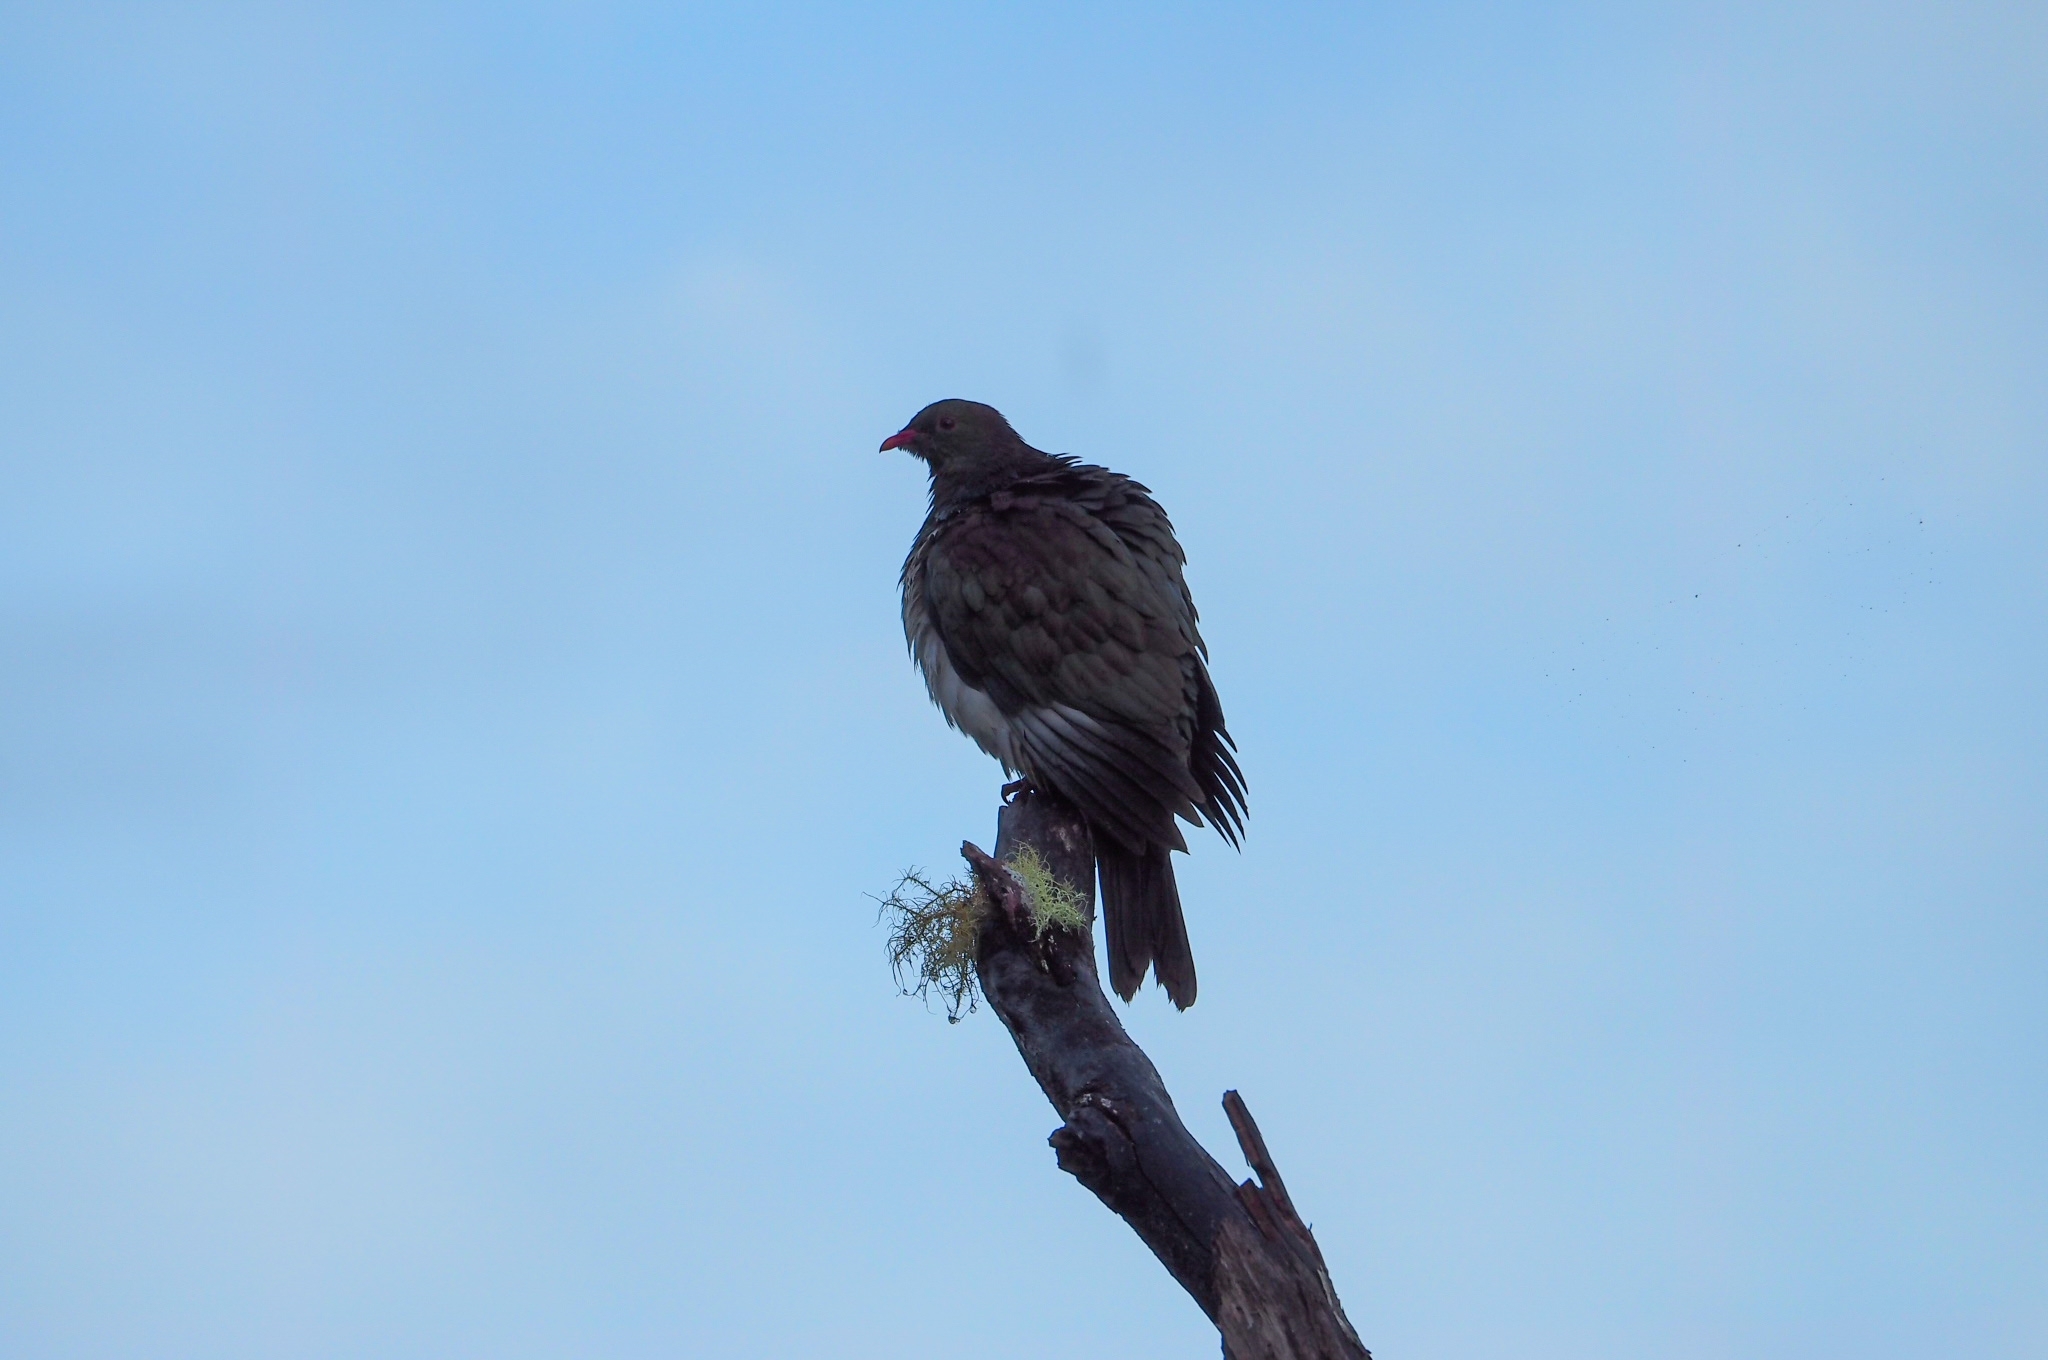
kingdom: Animalia
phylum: Chordata
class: Aves
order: Columbiformes
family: Columbidae
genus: Hemiphaga
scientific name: Hemiphaga novaeseelandiae
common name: New zealand pigeon
